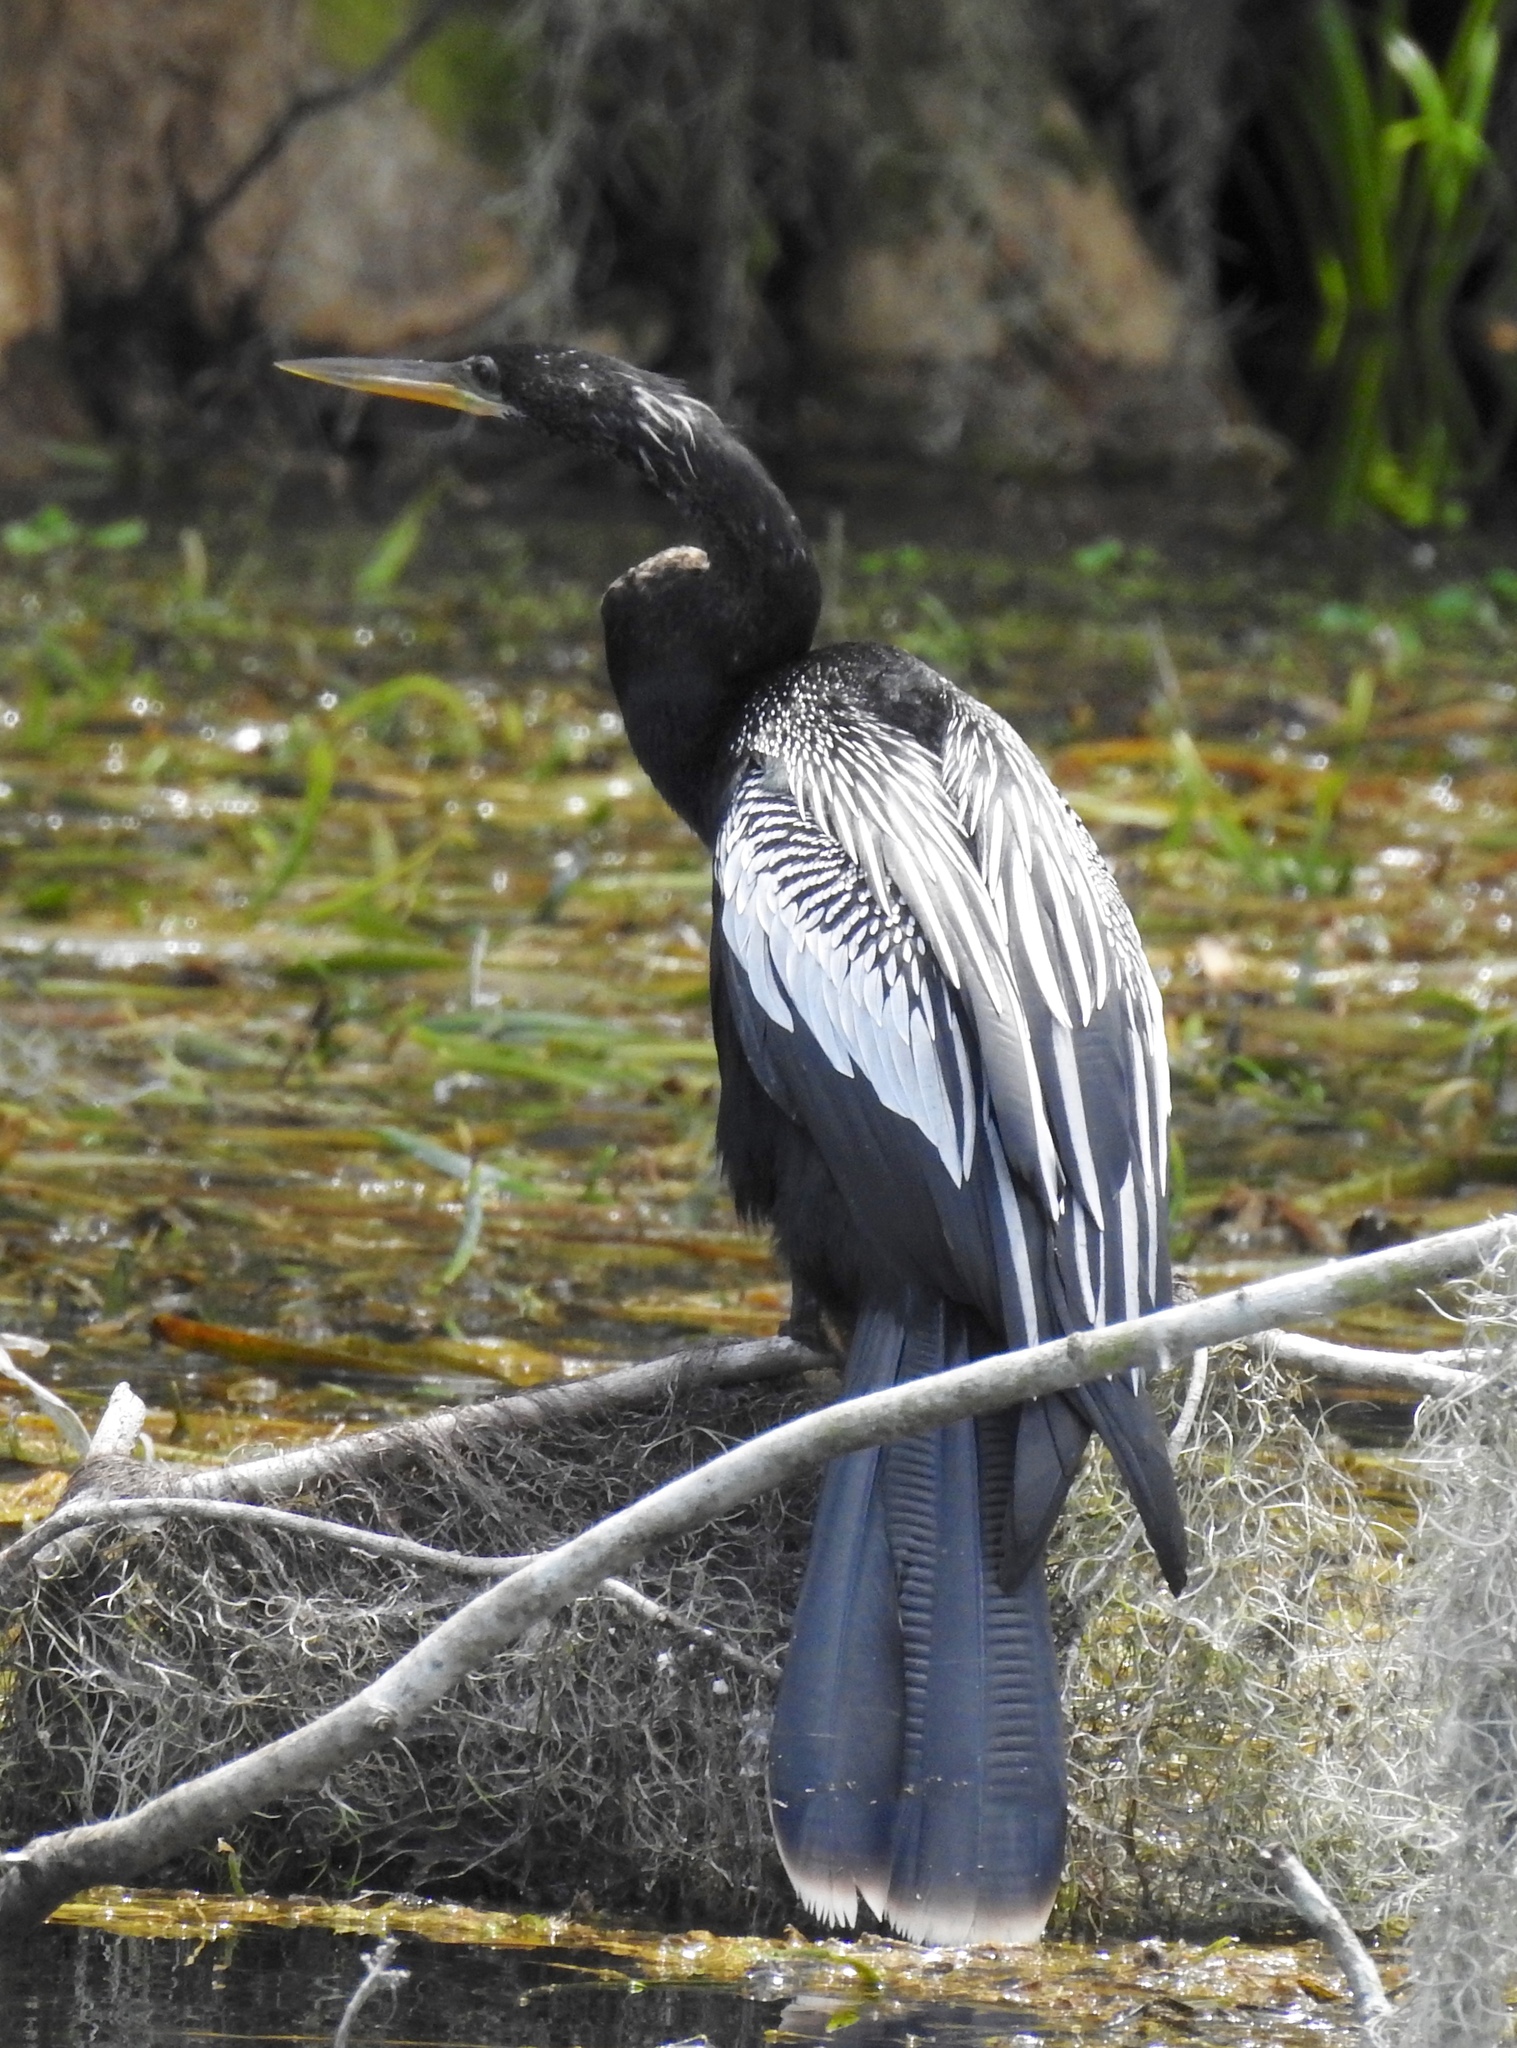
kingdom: Animalia
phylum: Chordata
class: Aves
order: Suliformes
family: Anhingidae
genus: Anhinga
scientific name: Anhinga anhinga
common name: Anhinga
